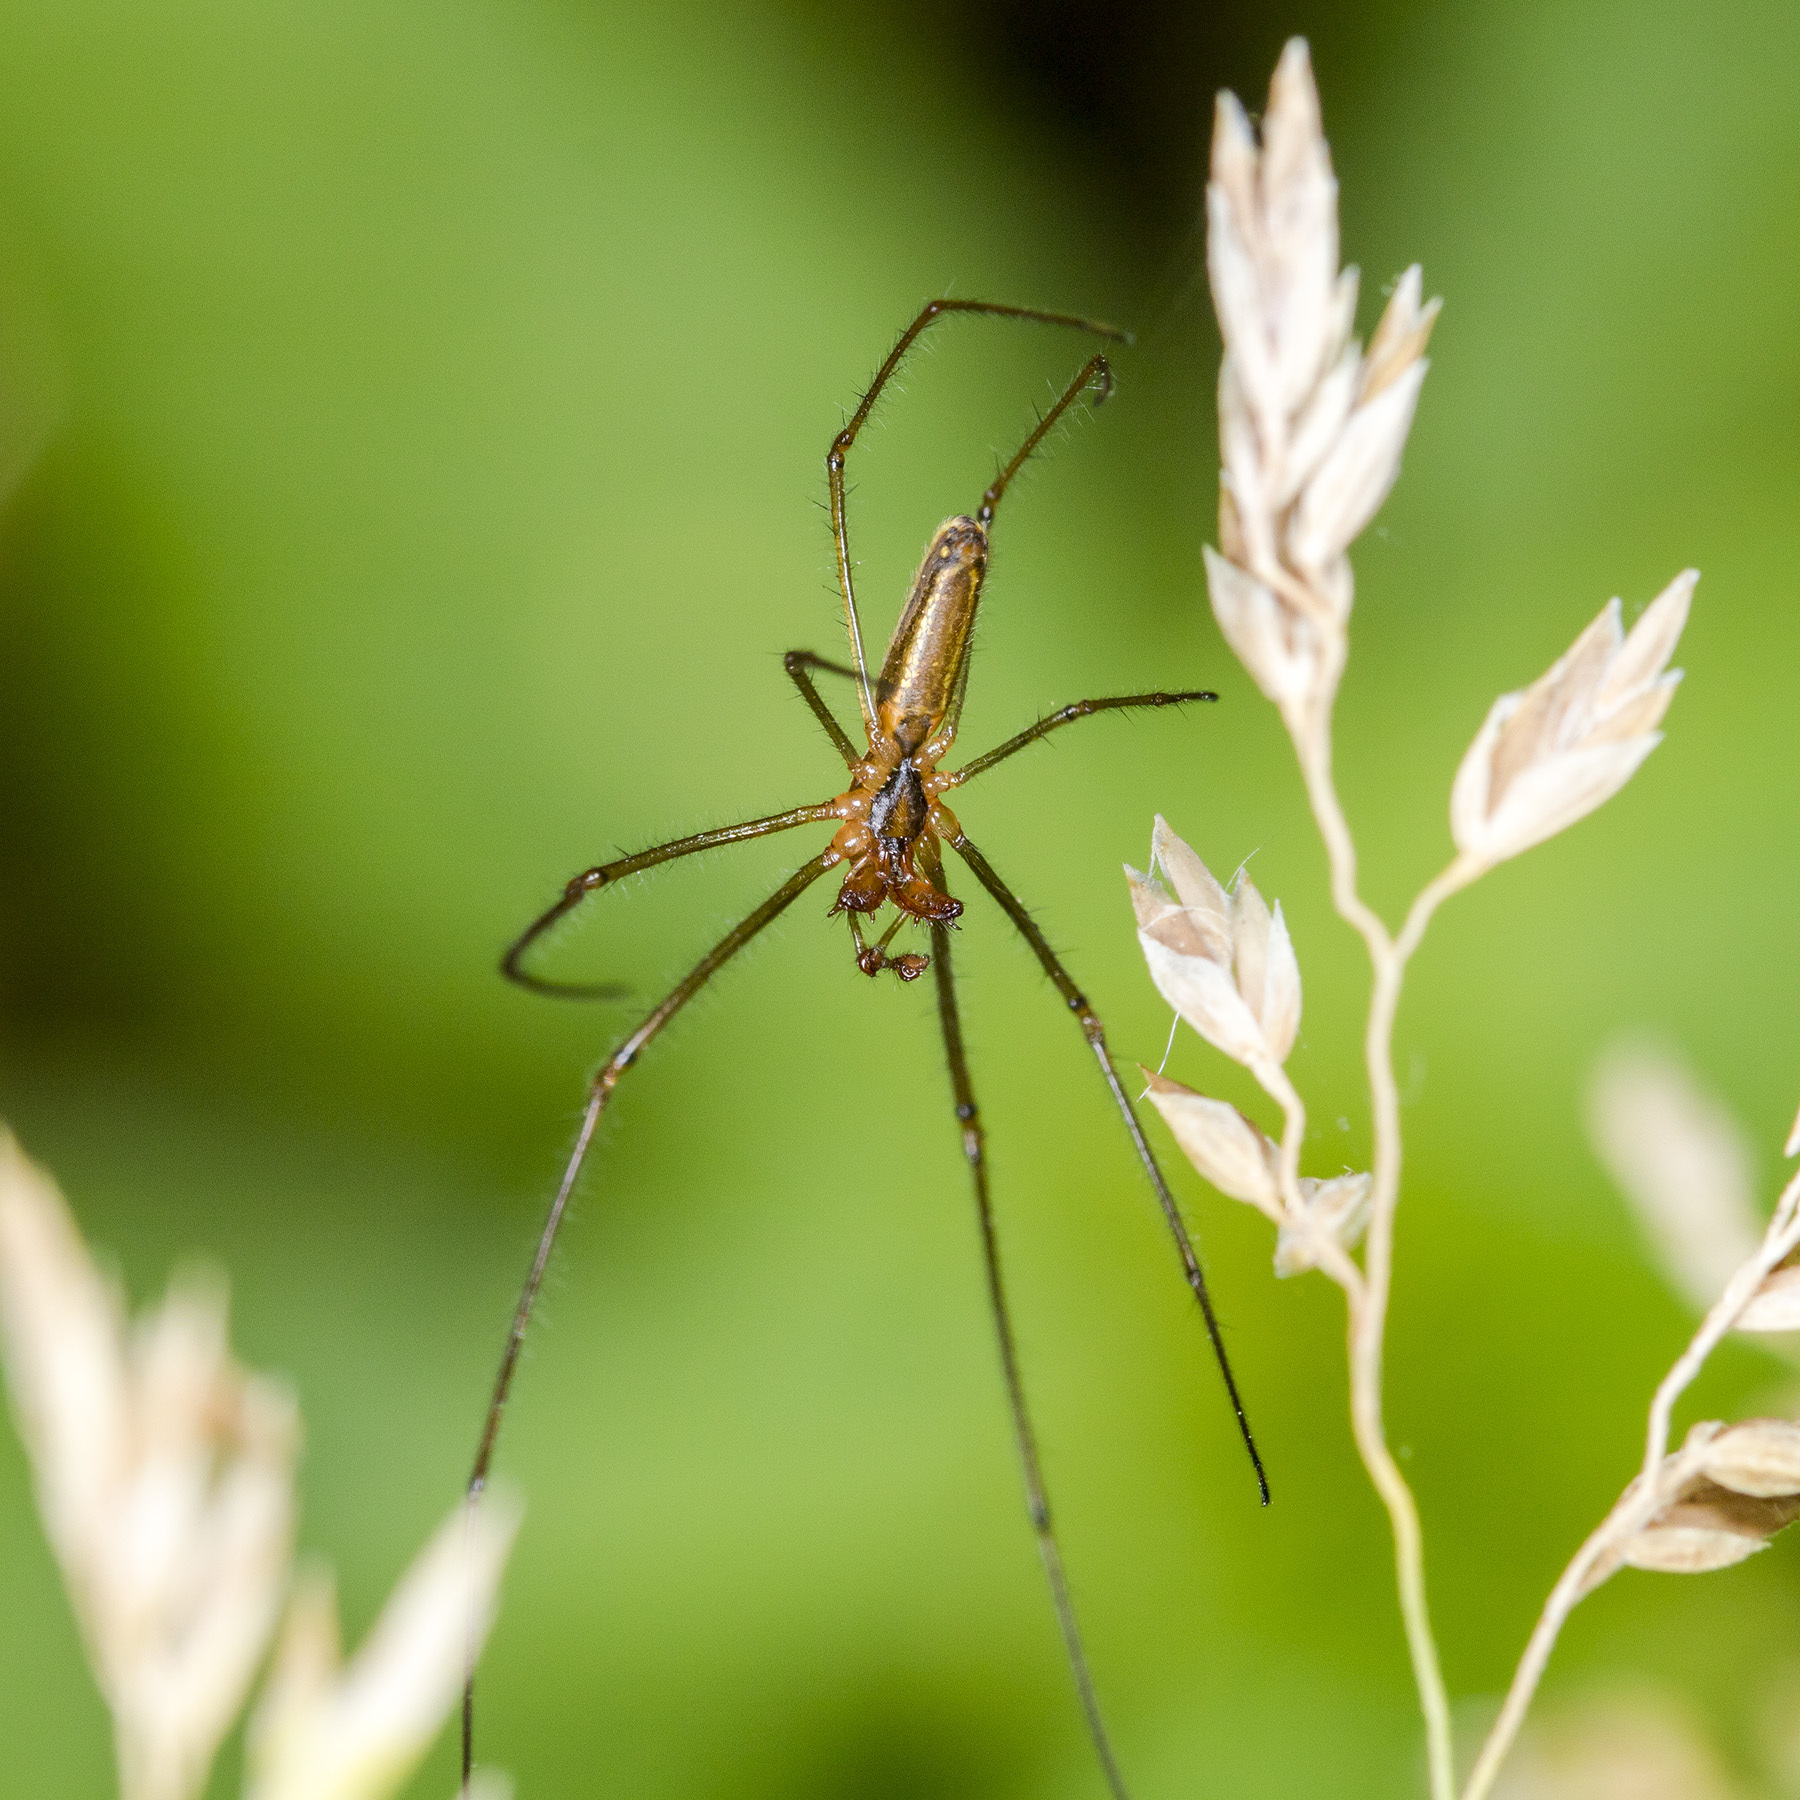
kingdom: Animalia
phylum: Arthropoda
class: Arachnida
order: Araneae
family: Tetragnathidae
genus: Tetragnatha
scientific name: Tetragnatha pinicola
